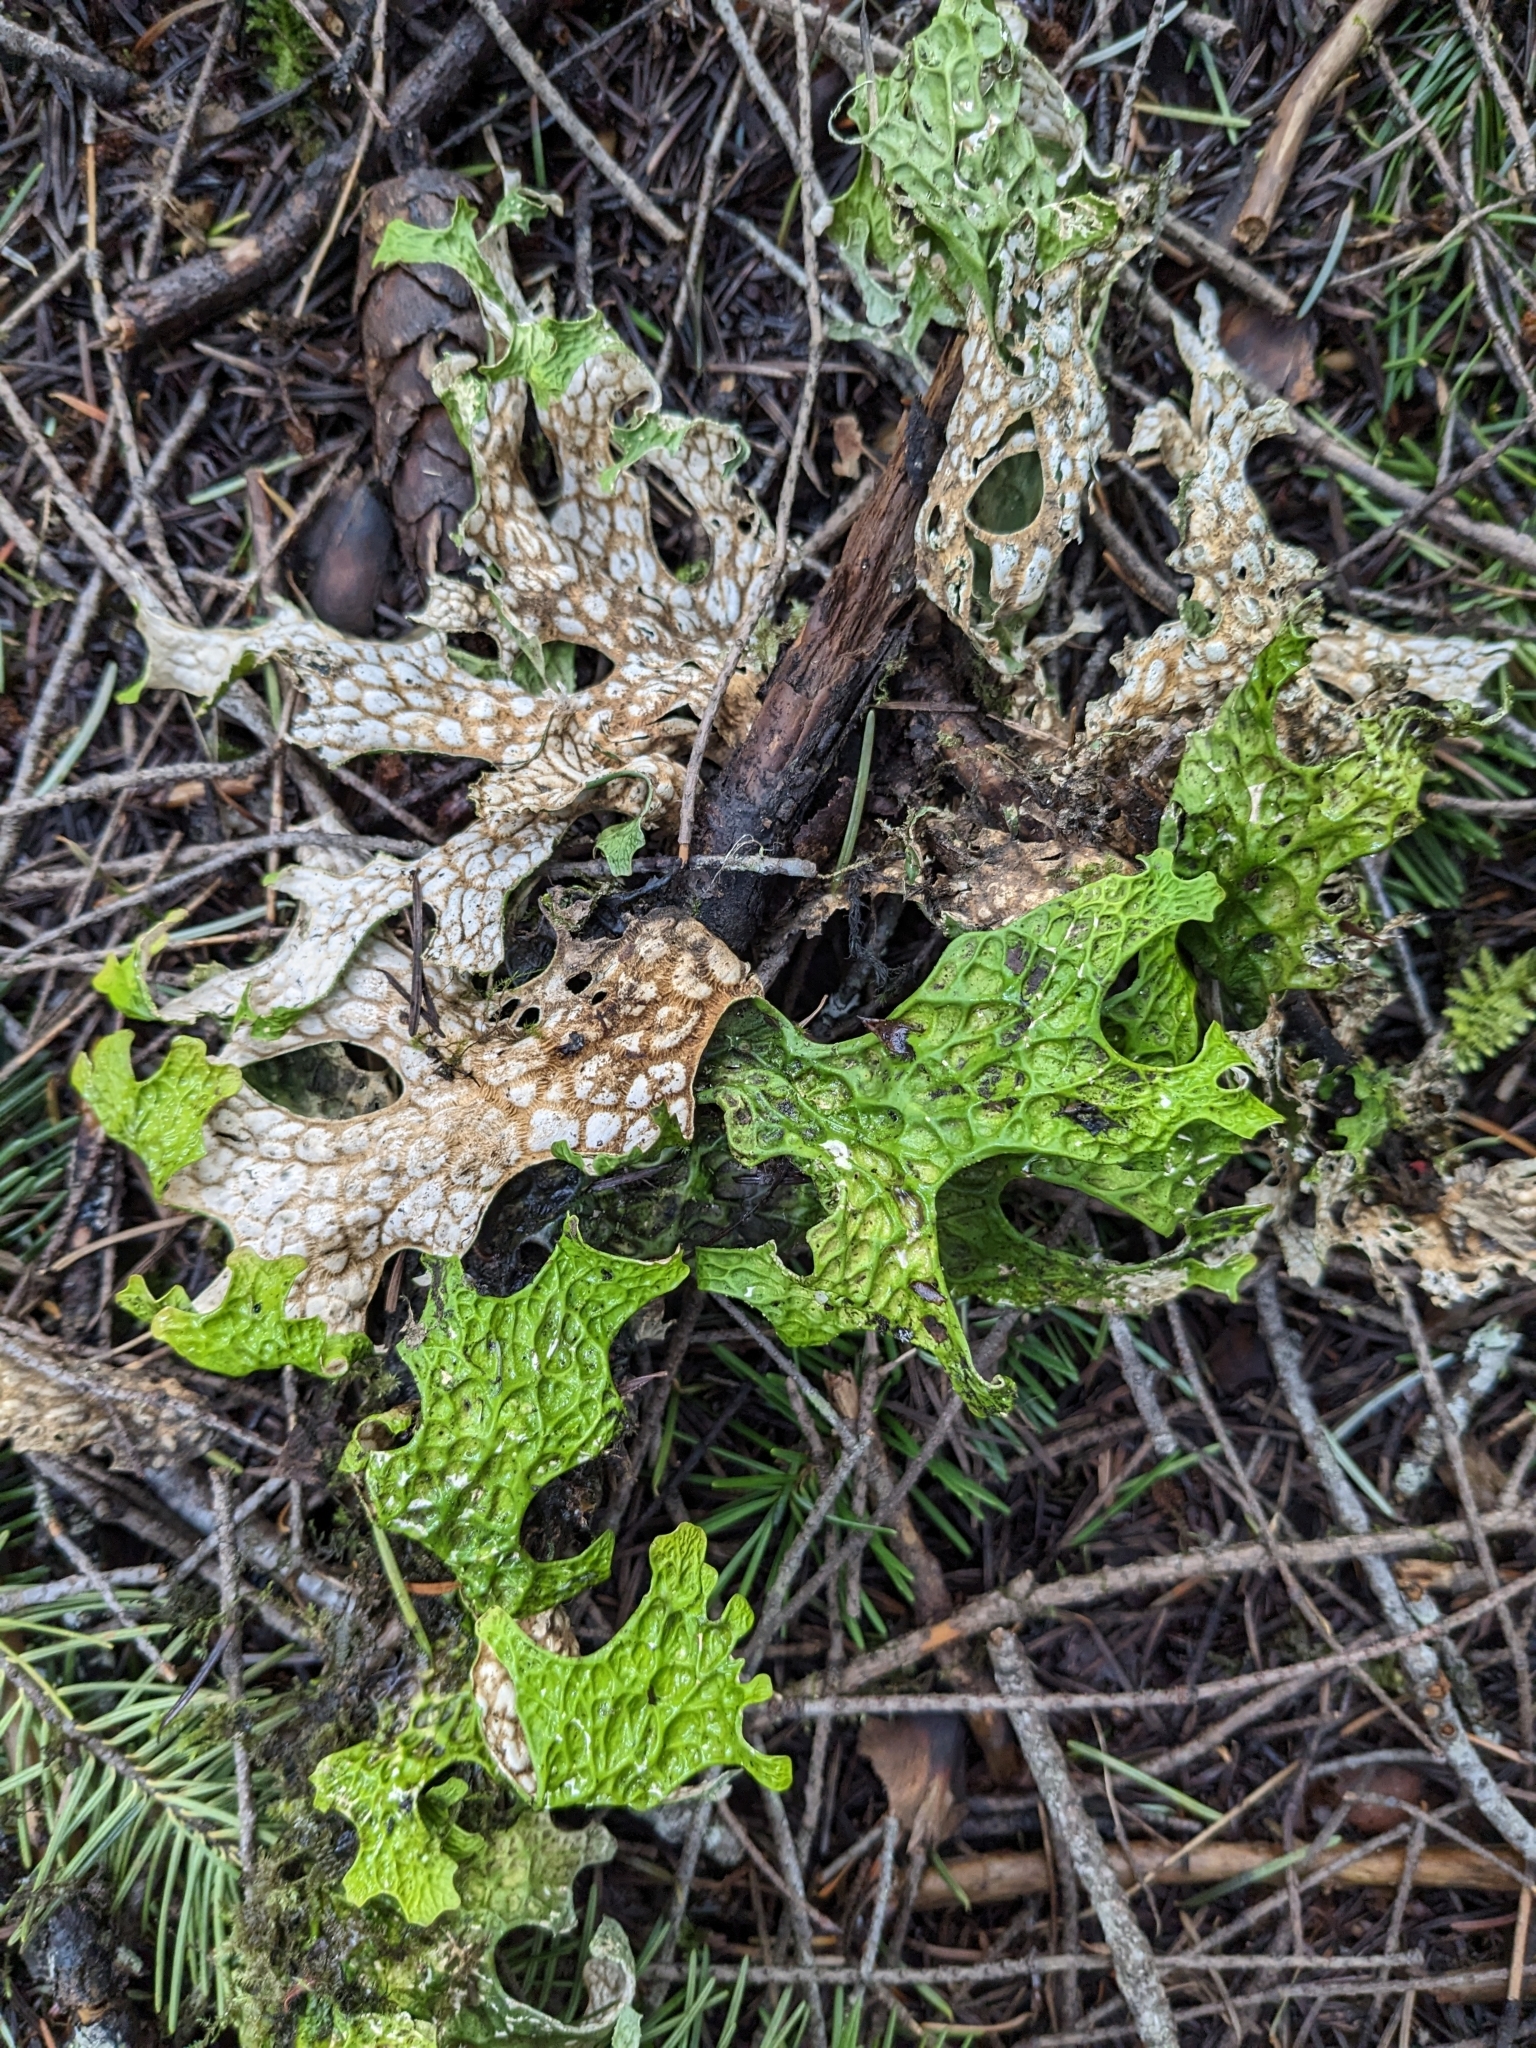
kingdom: Fungi
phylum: Ascomycota
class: Lecanoromycetes
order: Peltigerales
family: Lobariaceae
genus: Lobaria
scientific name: Lobaria pulmonaria
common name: Lungwort
